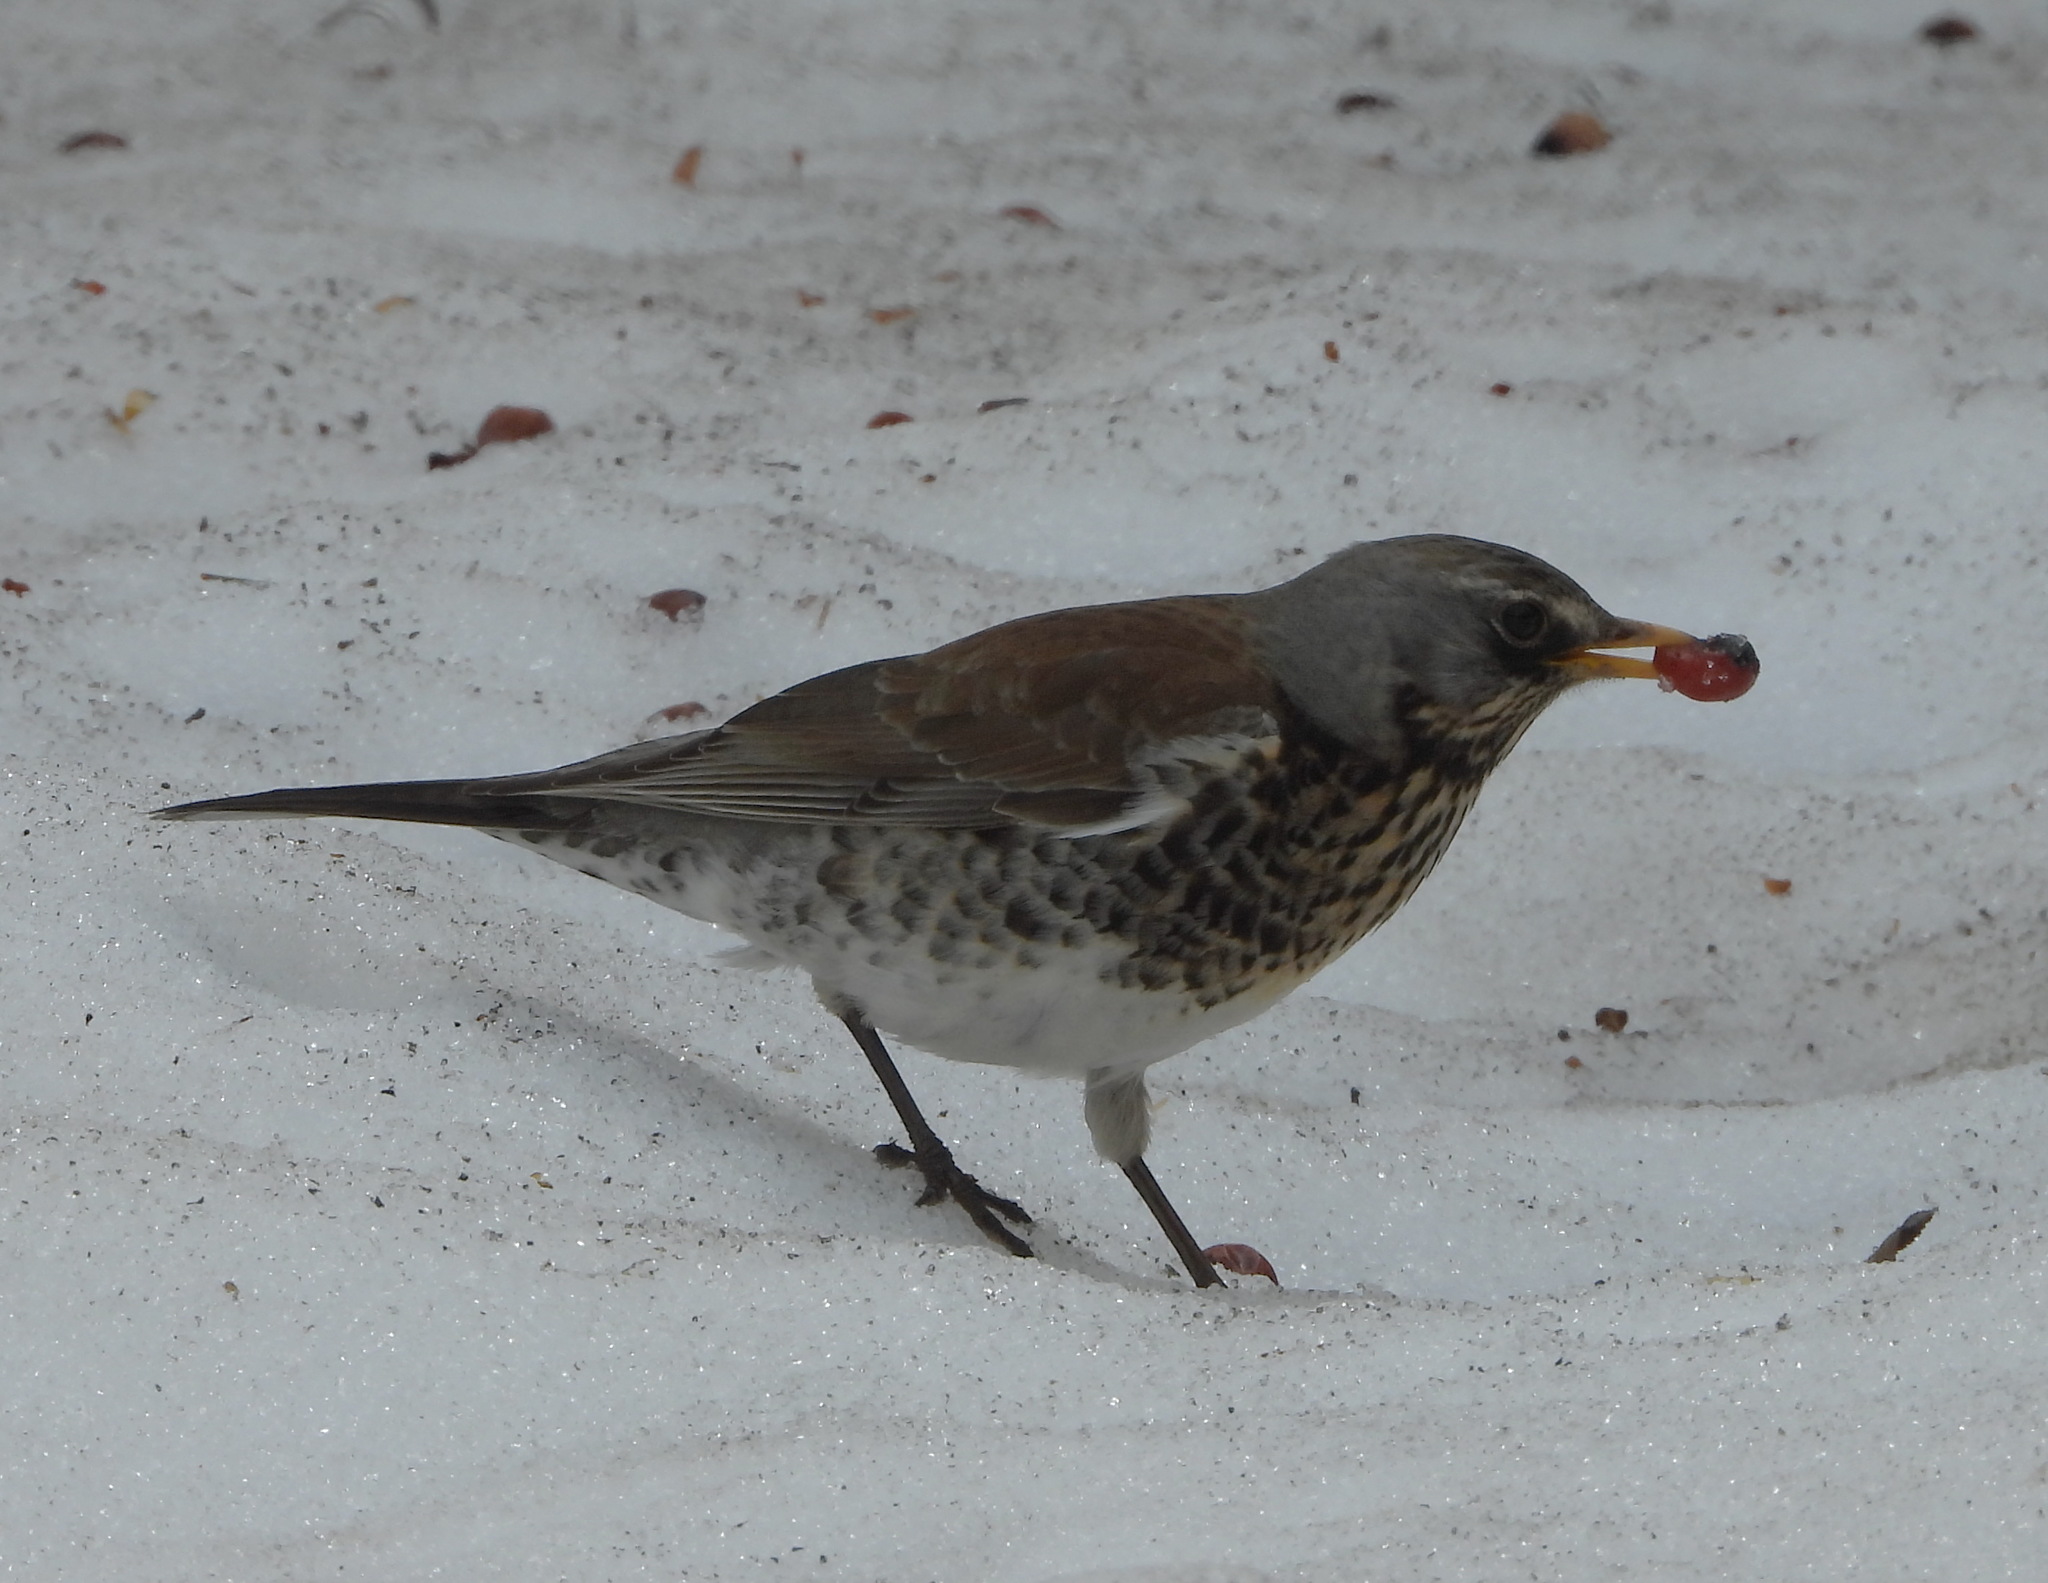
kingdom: Animalia
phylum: Chordata
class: Aves
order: Passeriformes
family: Turdidae
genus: Turdus
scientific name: Turdus pilaris
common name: Fieldfare
